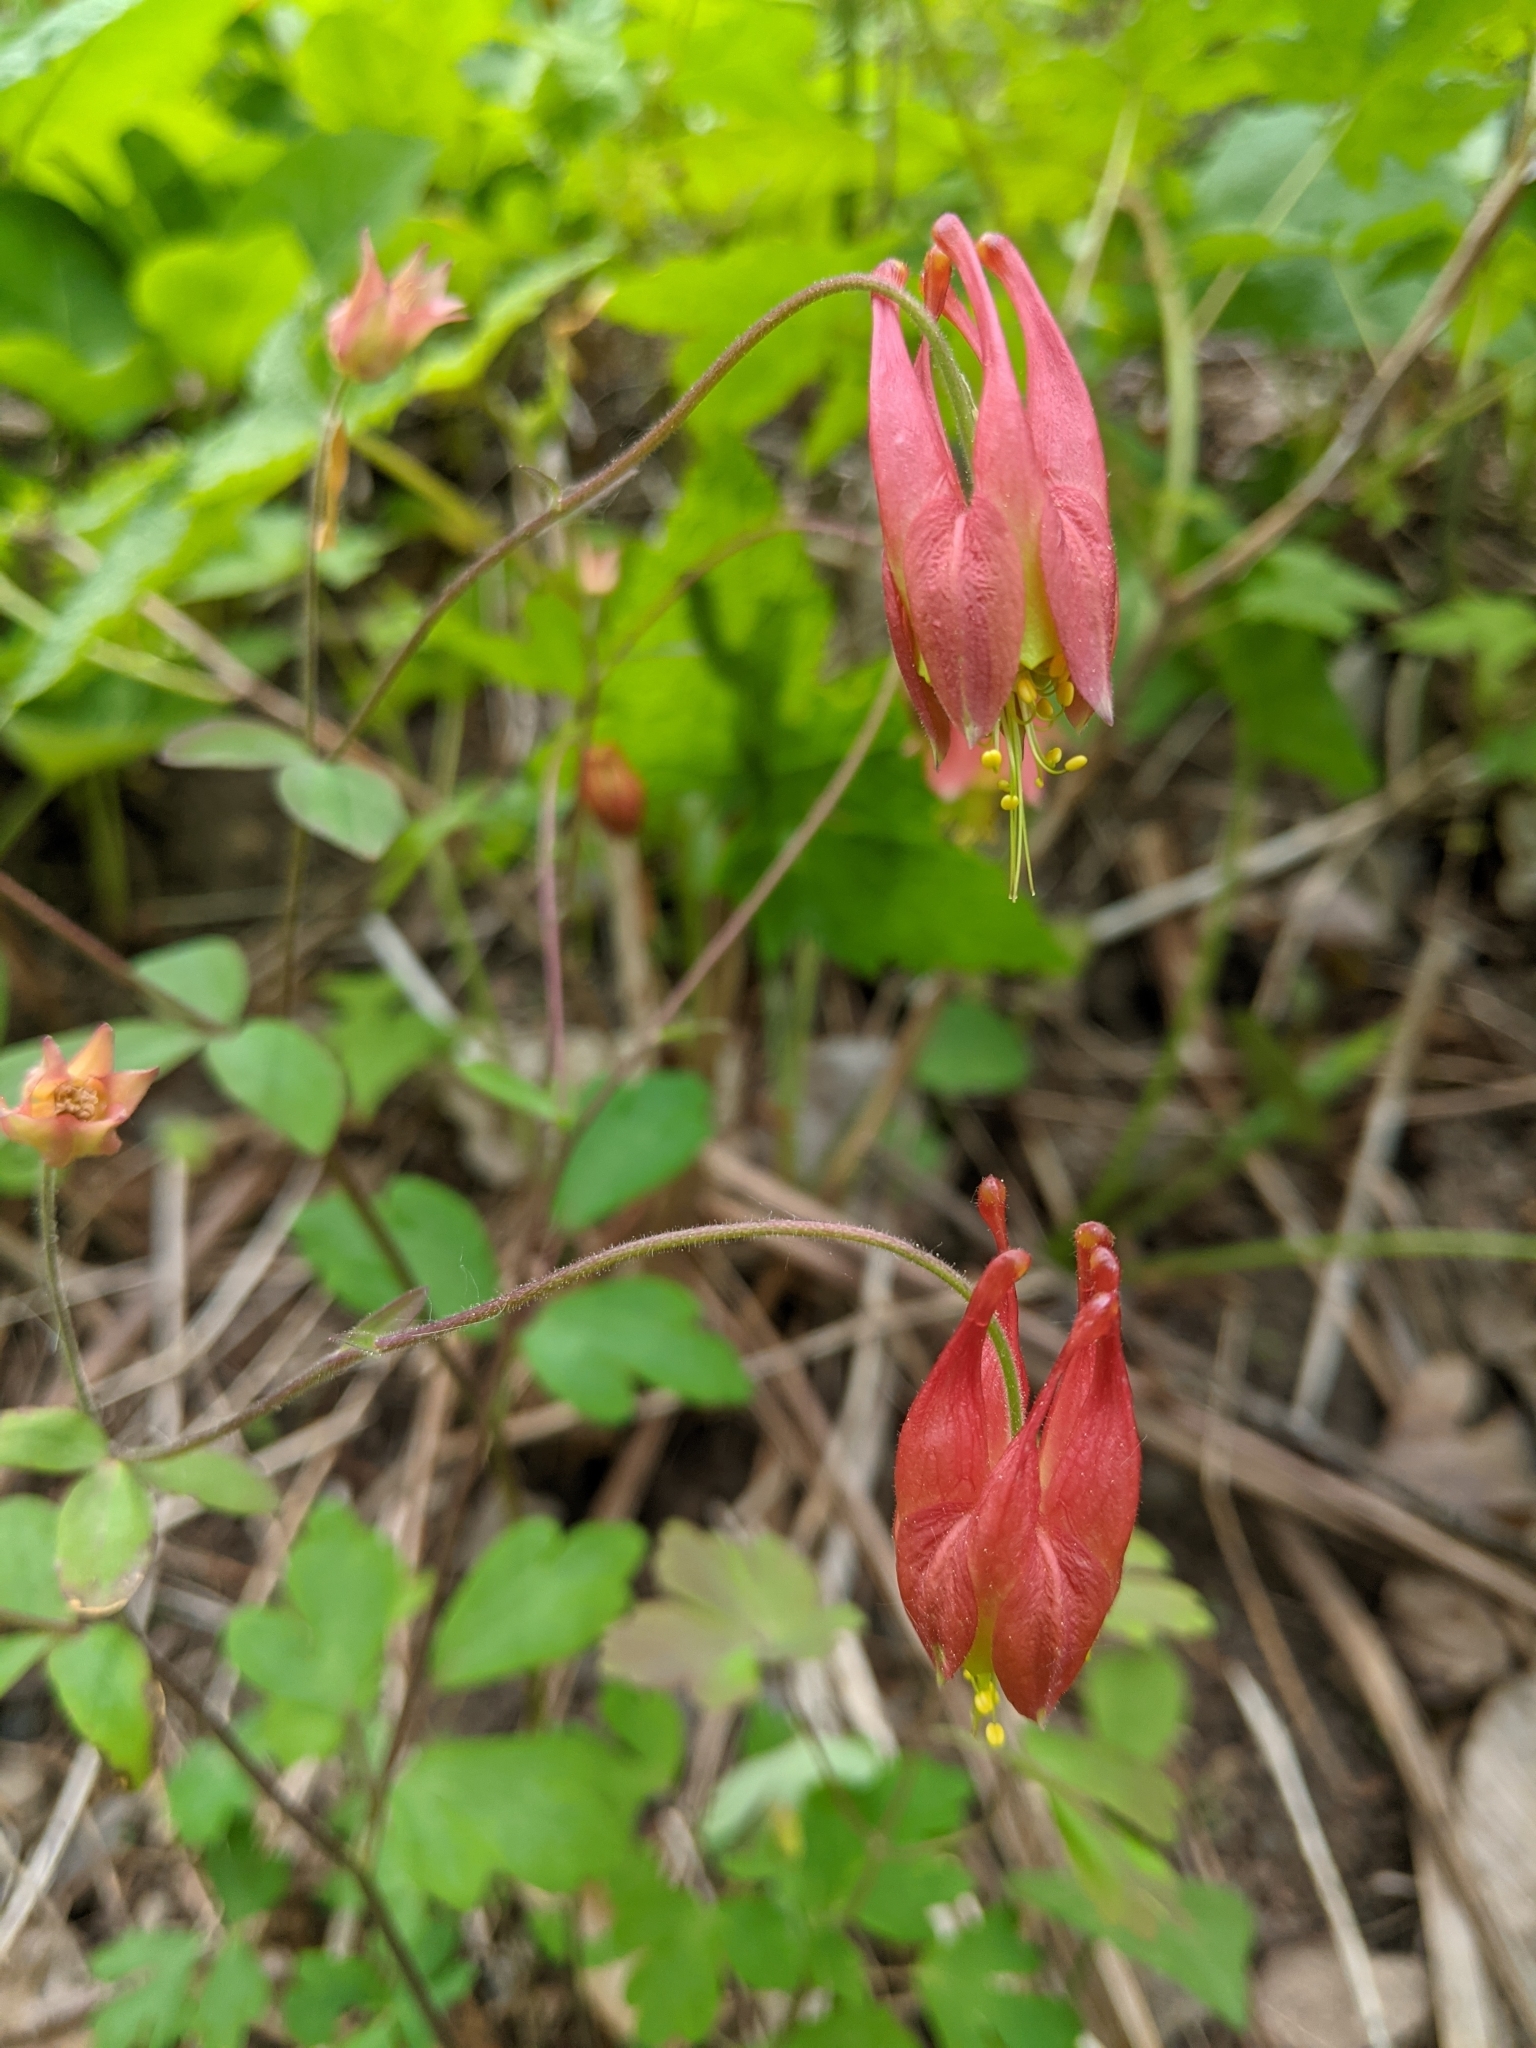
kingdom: Plantae
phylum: Tracheophyta
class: Magnoliopsida
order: Ranunculales
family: Ranunculaceae
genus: Aquilegia
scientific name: Aquilegia canadensis
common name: American columbine
